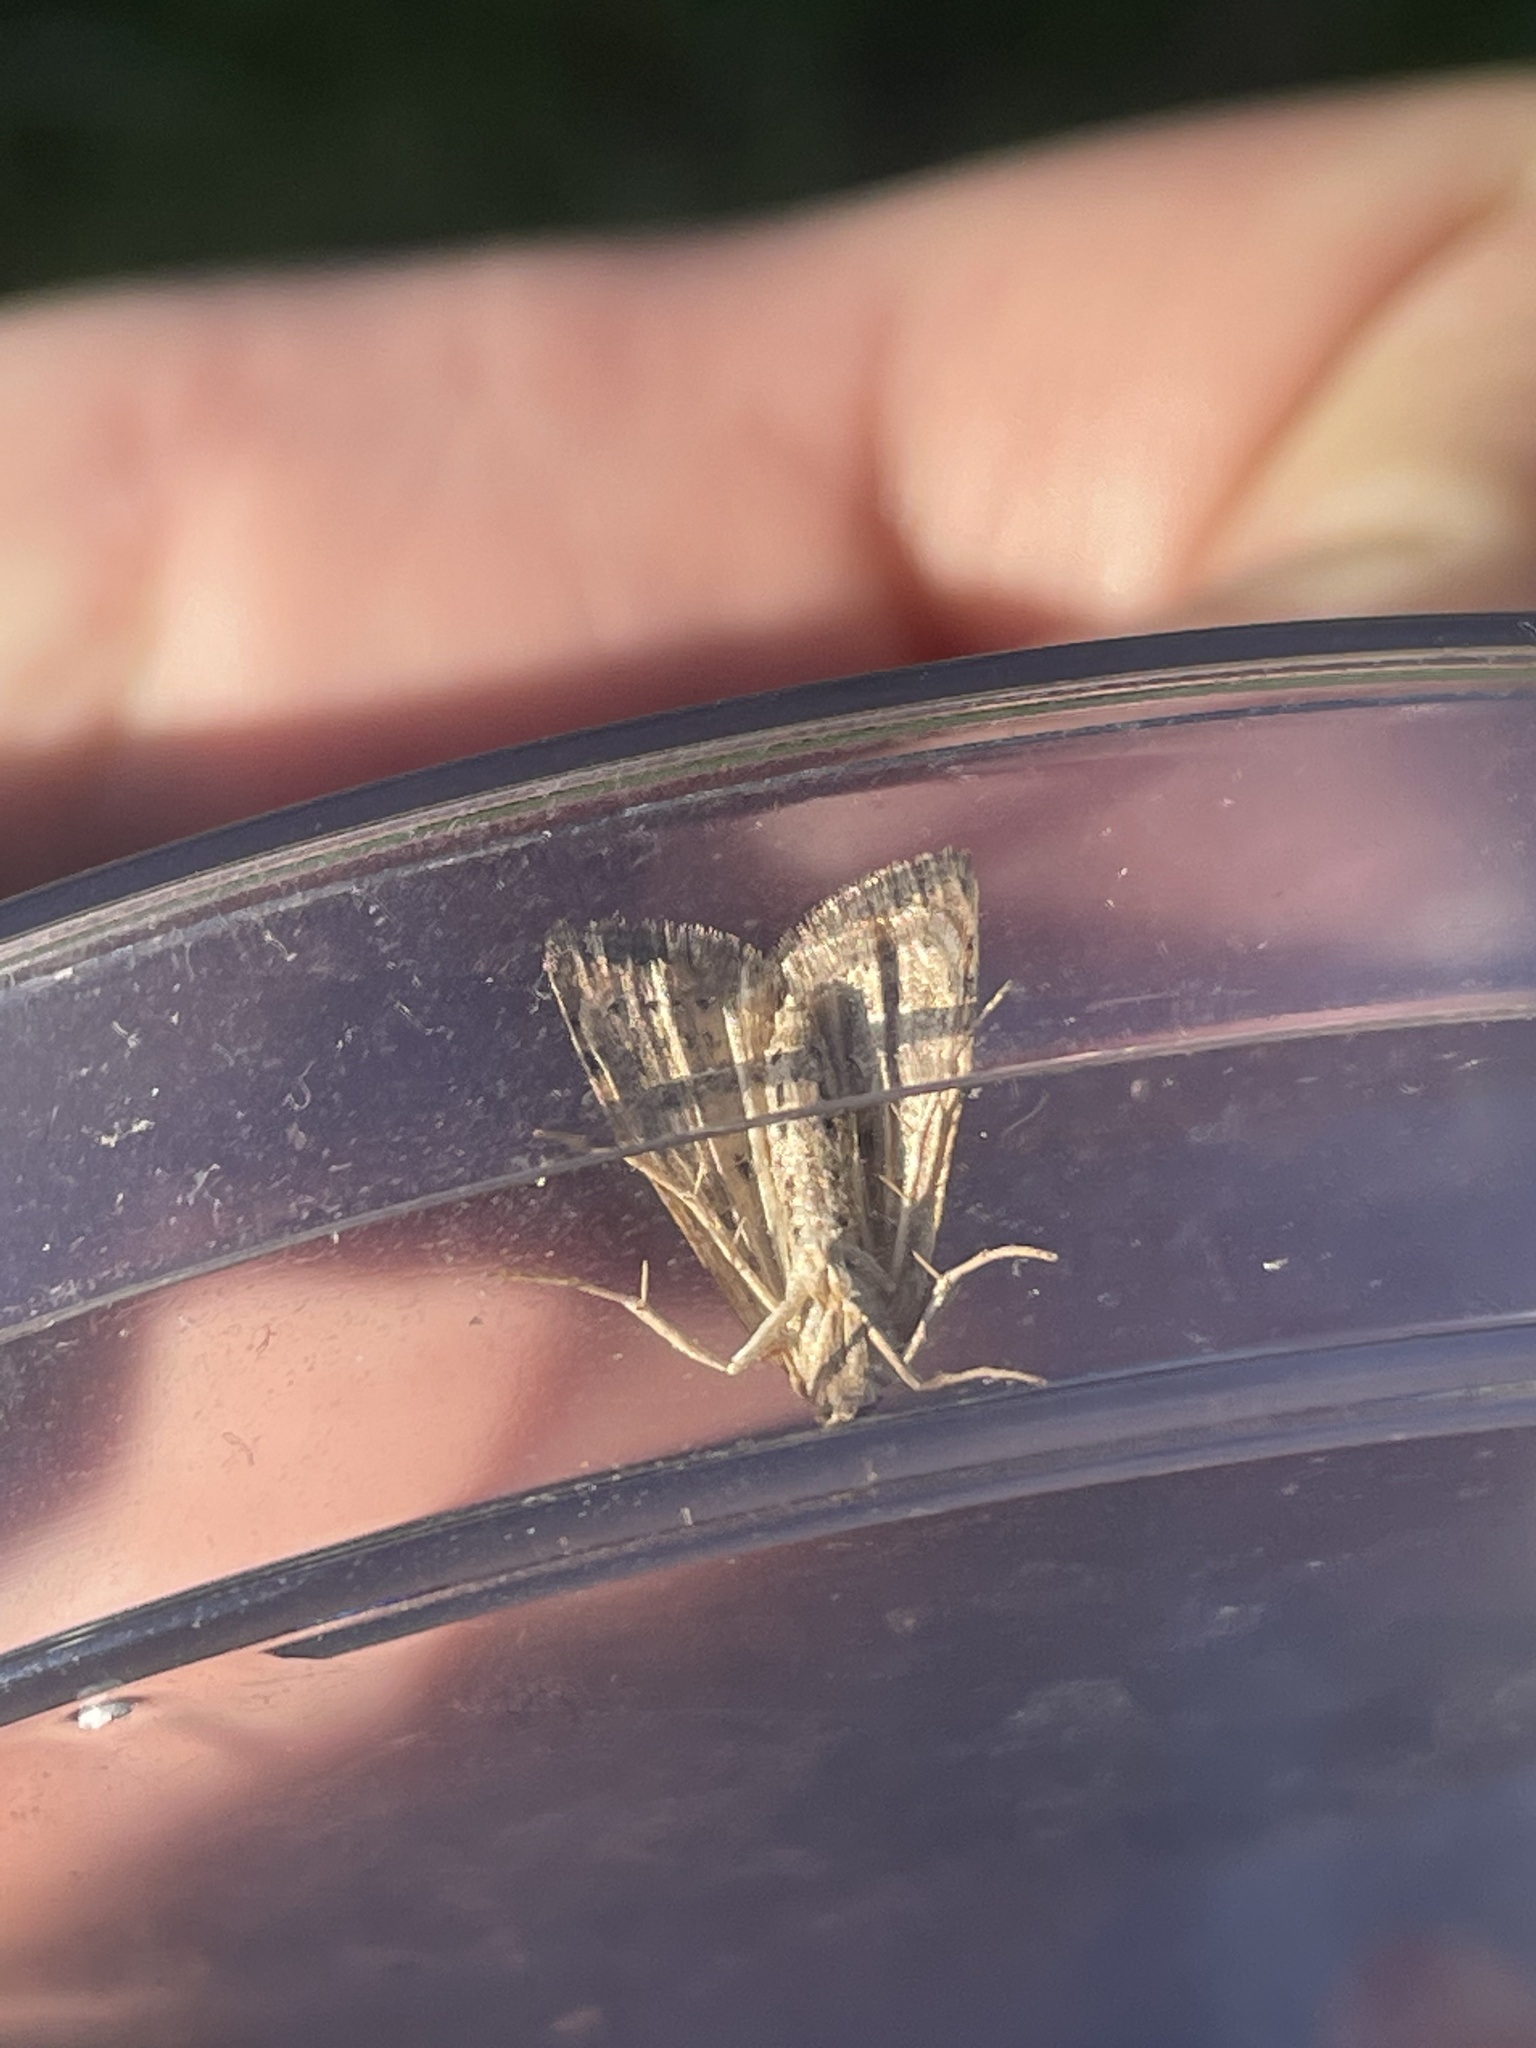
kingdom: Animalia
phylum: Arthropoda
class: Insecta
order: Lepidoptera
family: Crambidae
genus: Udea
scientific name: Udea rubigalis
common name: Celery leaftier moth
